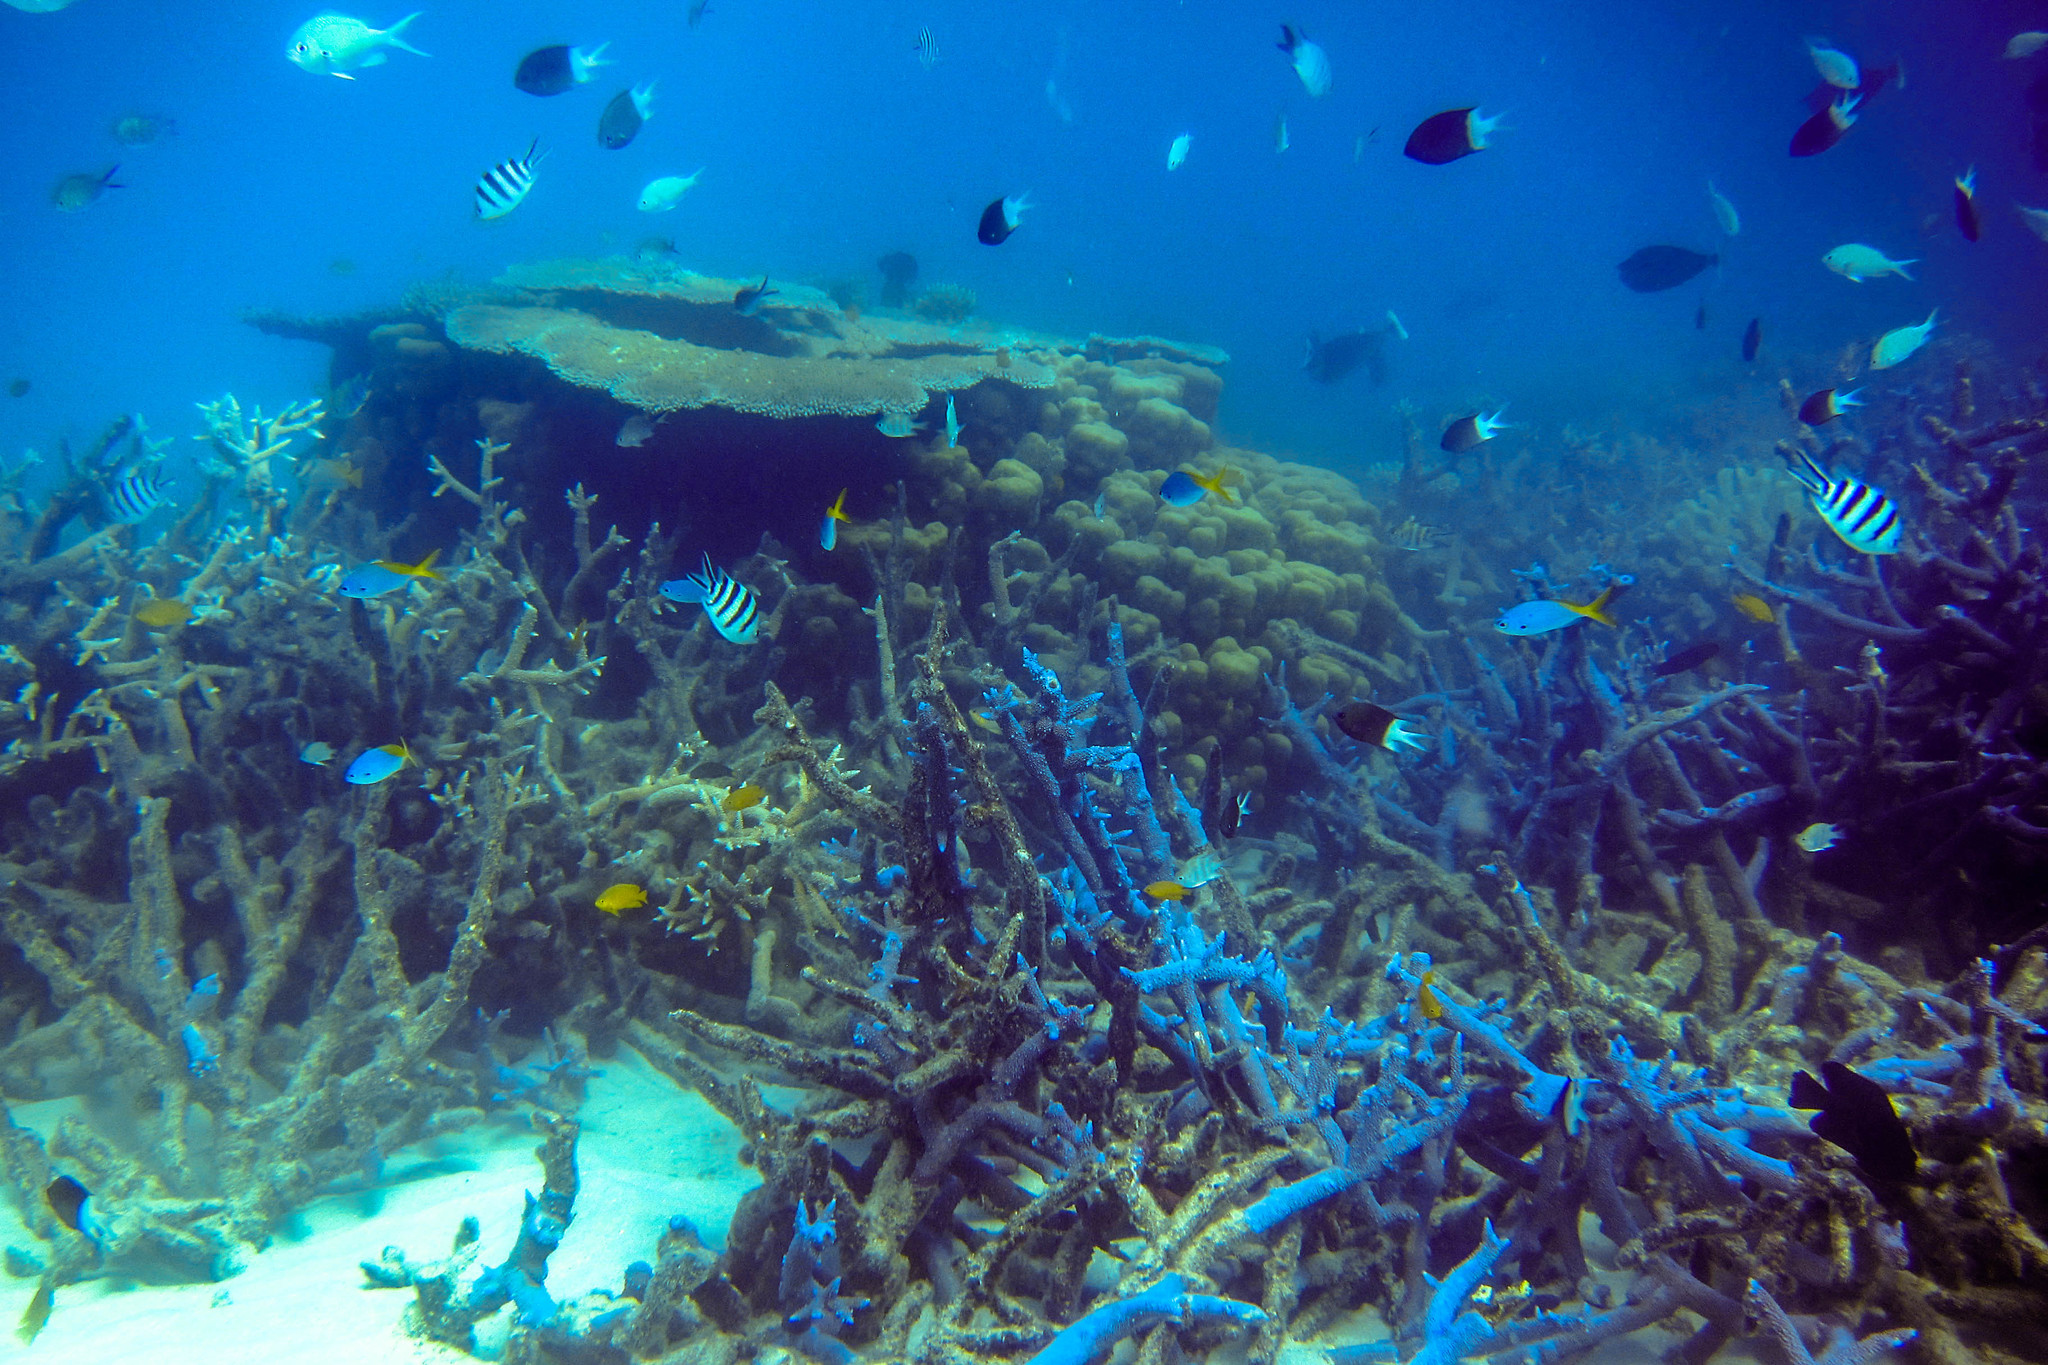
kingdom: Animalia
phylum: Chordata
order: Perciformes
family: Pomacentridae
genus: Acanthochromis
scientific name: Acanthochromis polyacanthus
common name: Spiny chromis
